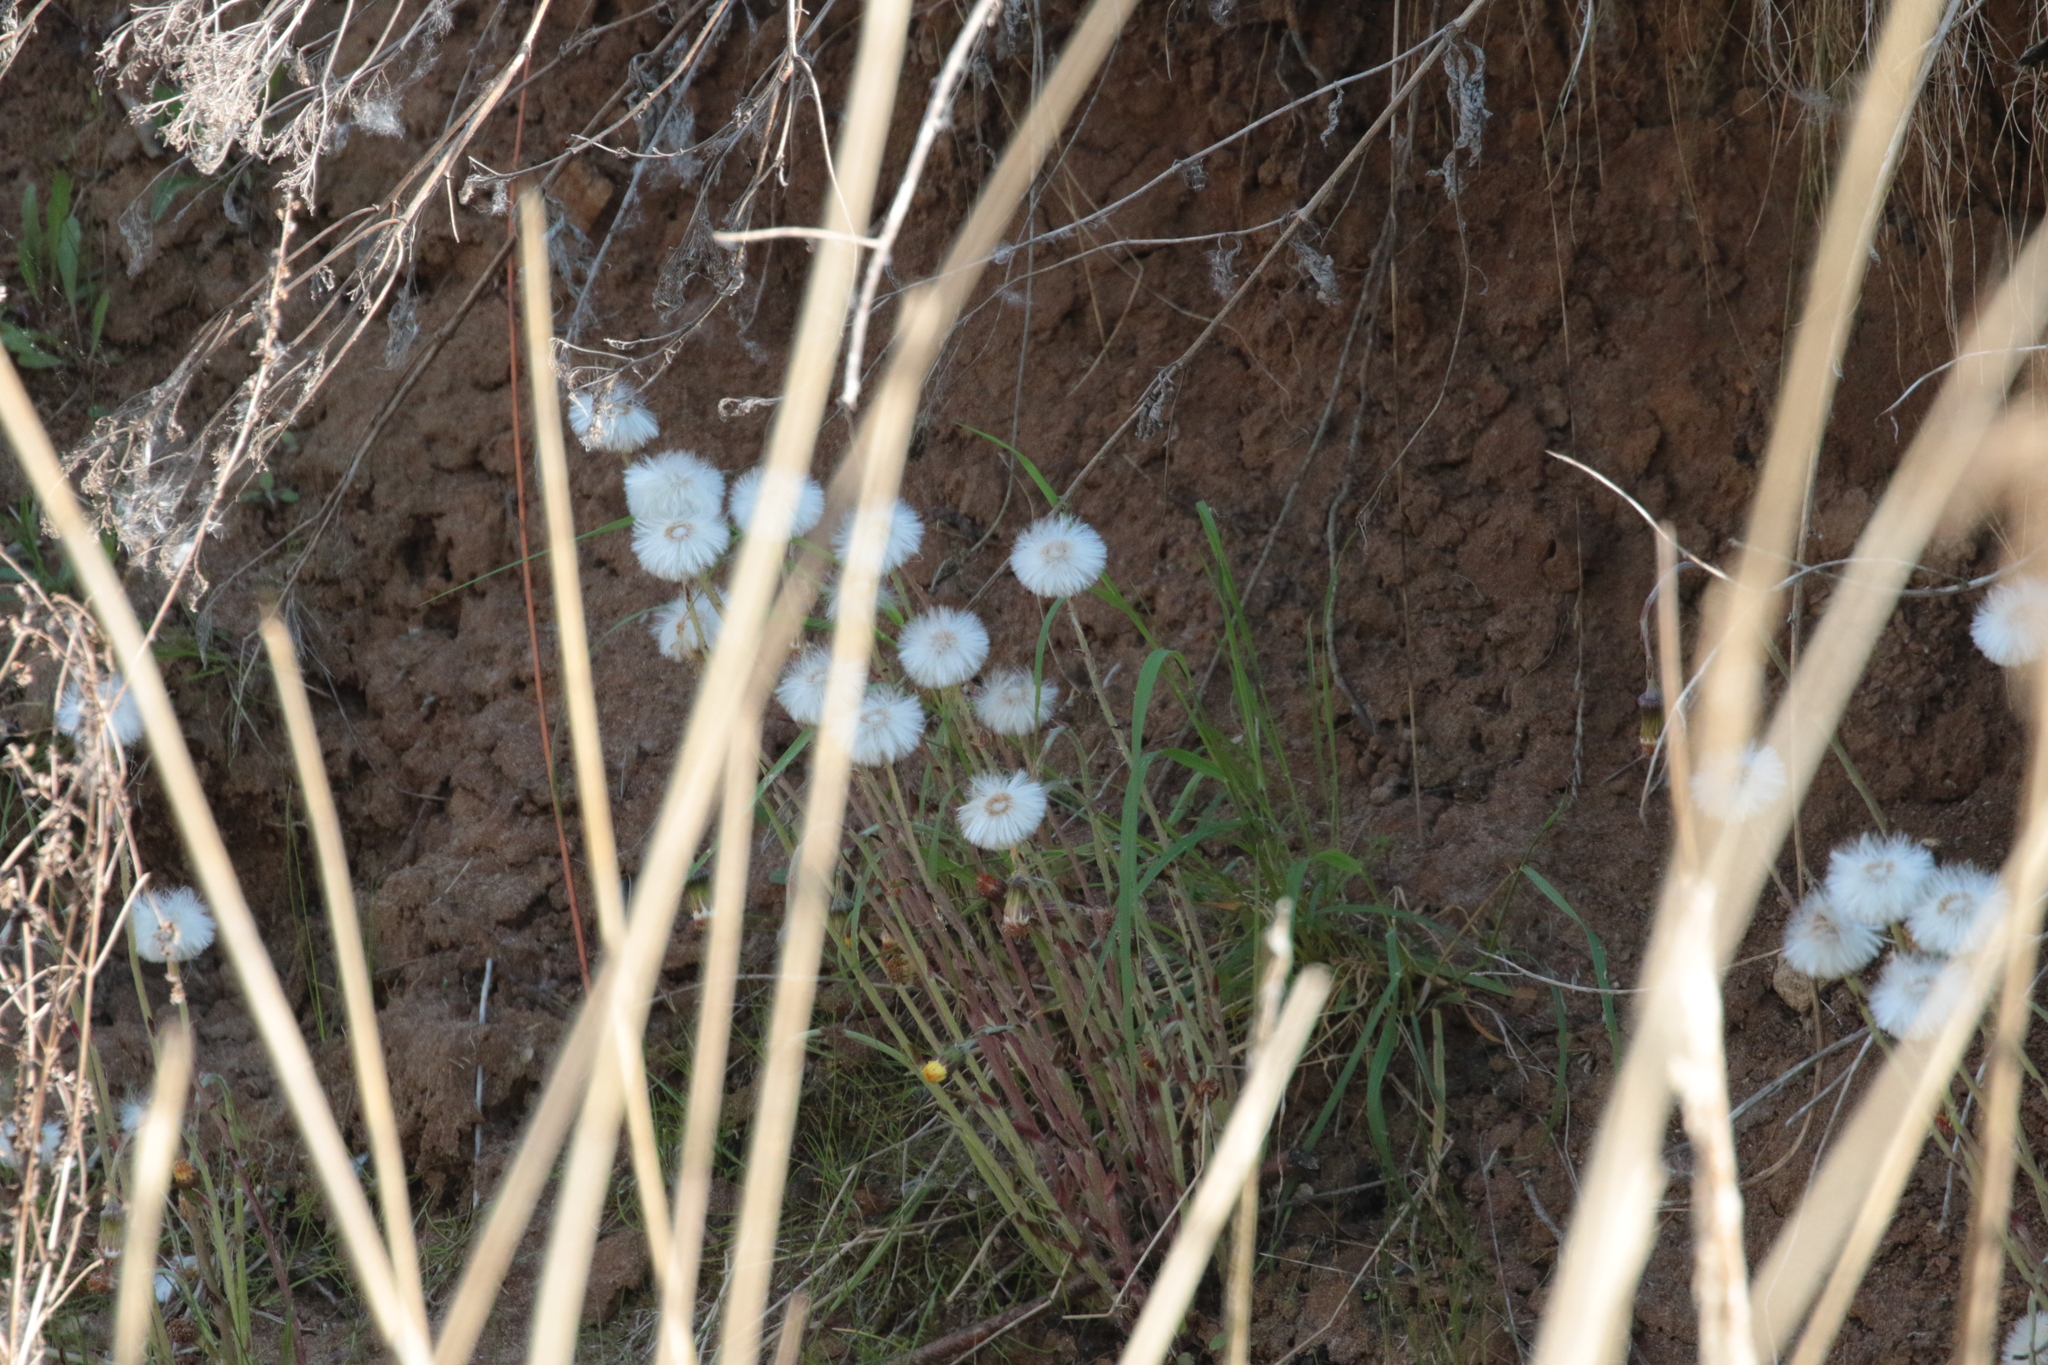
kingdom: Plantae
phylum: Tracheophyta
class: Magnoliopsida
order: Asterales
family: Asteraceae
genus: Tussilago
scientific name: Tussilago farfara
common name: Coltsfoot
